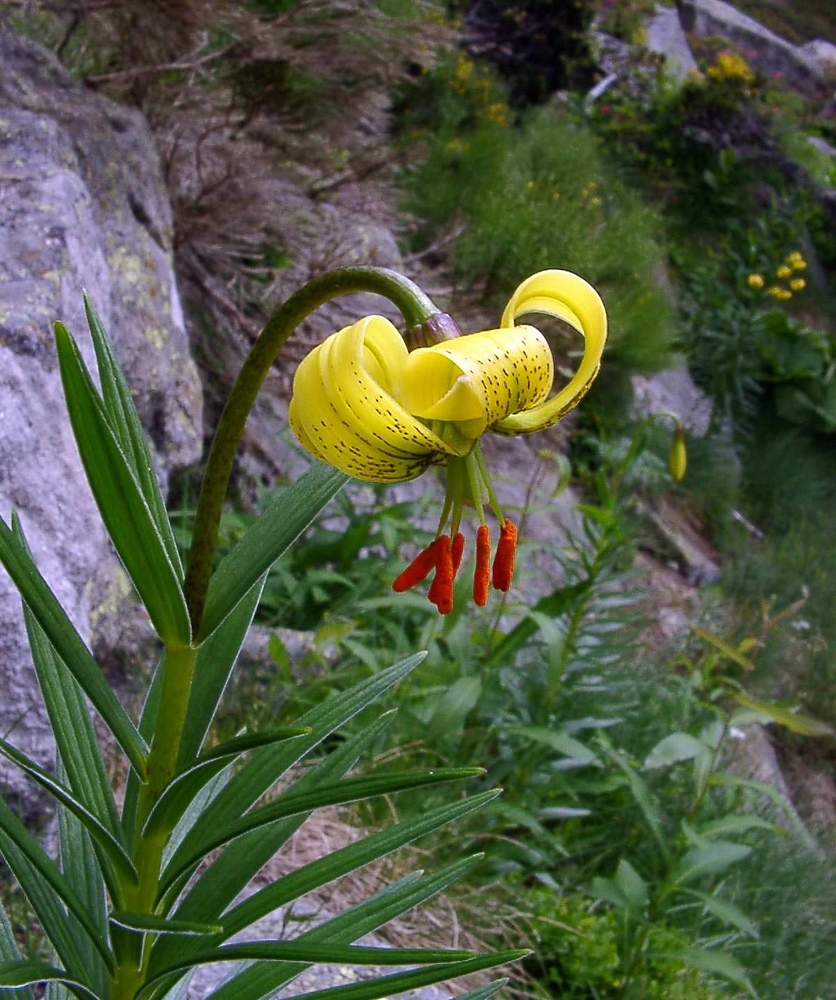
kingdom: Plantae
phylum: Tracheophyta
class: Liliopsida
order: Liliales
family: Liliaceae
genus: Lilium
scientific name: Lilium pyrenaicum
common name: Pyrenean lily
